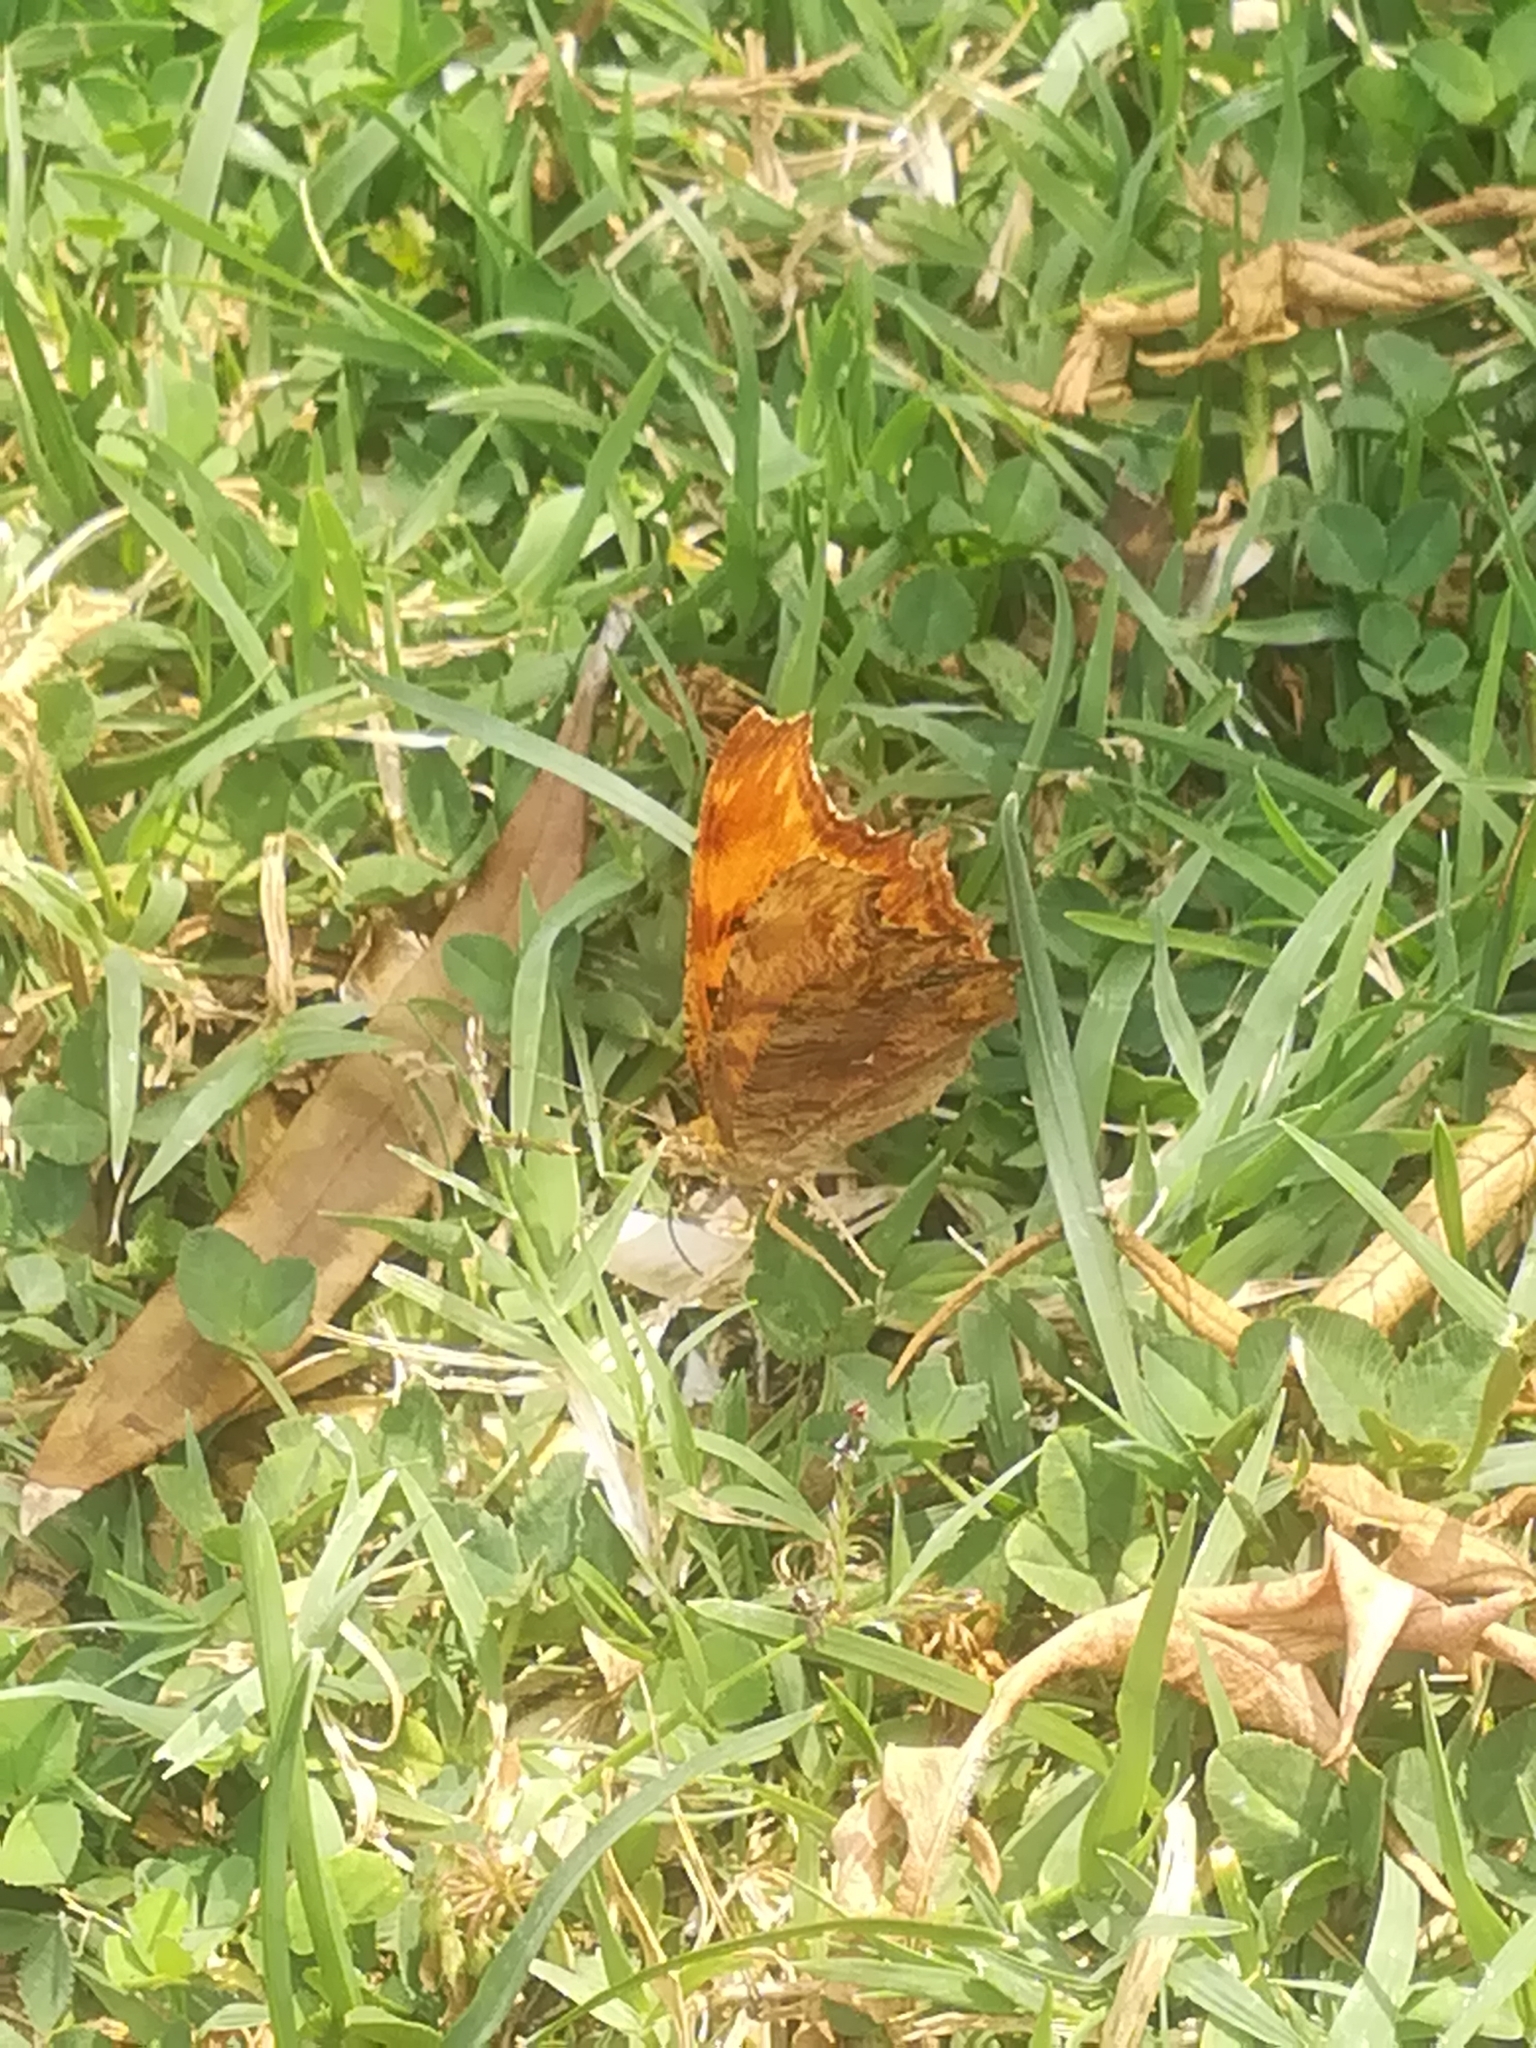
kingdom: Animalia
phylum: Arthropoda
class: Insecta
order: Lepidoptera
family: Nymphalidae
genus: Polygonia
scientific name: Polygonia egea
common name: Southern comma
